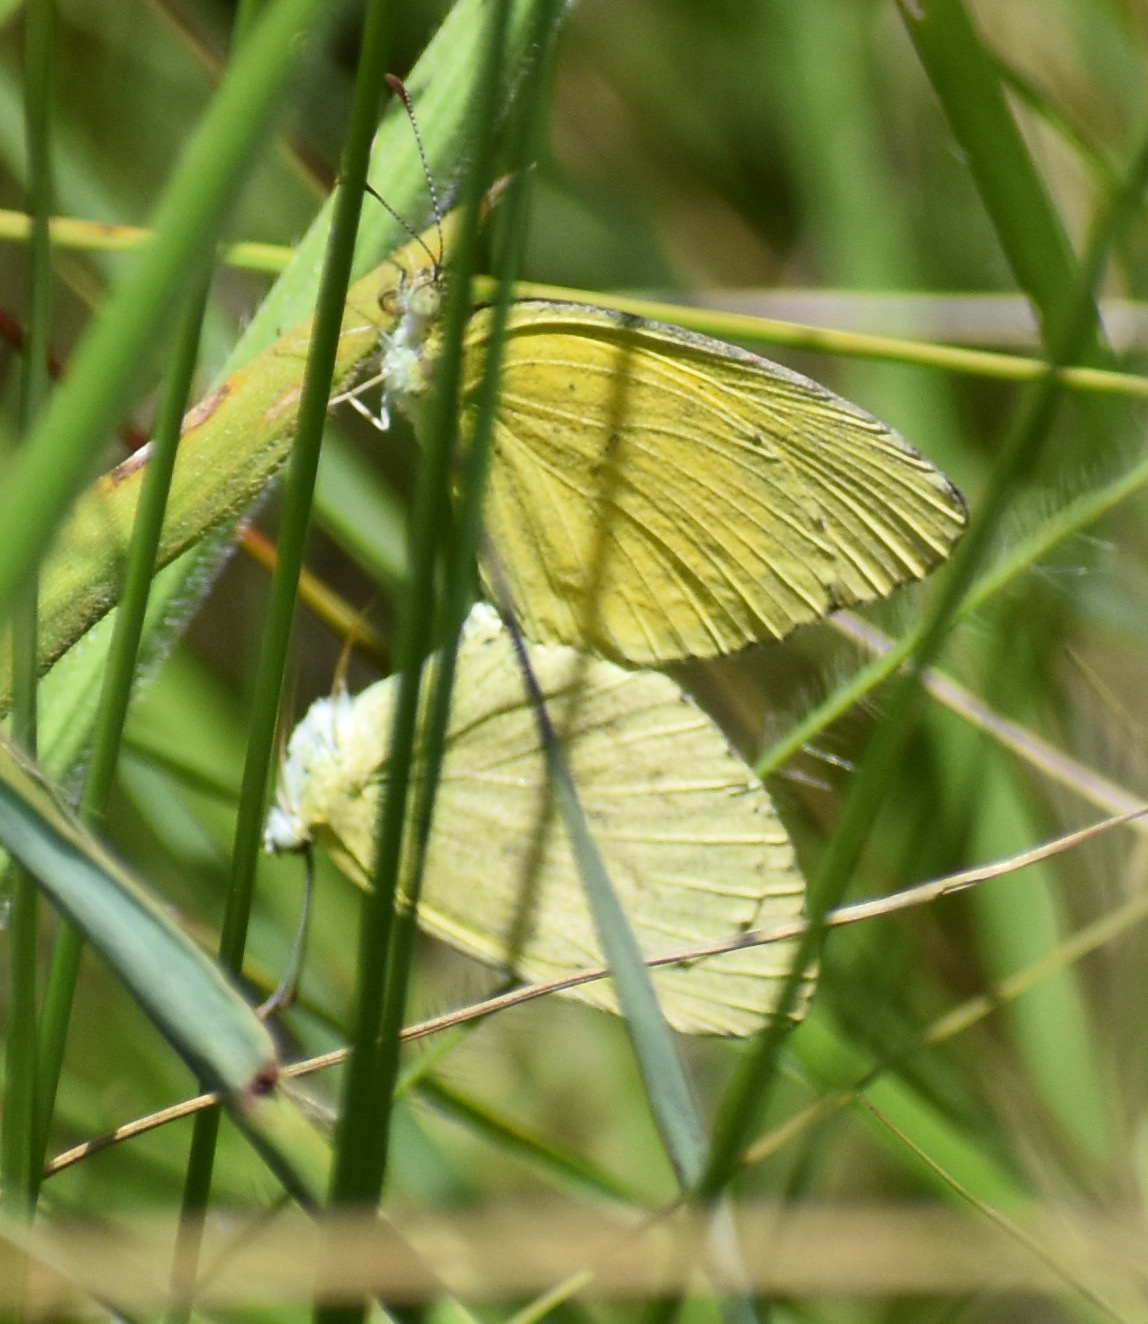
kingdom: Animalia
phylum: Arthropoda
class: Insecta
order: Lepidoptera
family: Pieridae
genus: Eurema
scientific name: Eurema brigitta
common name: Small grass yellow
